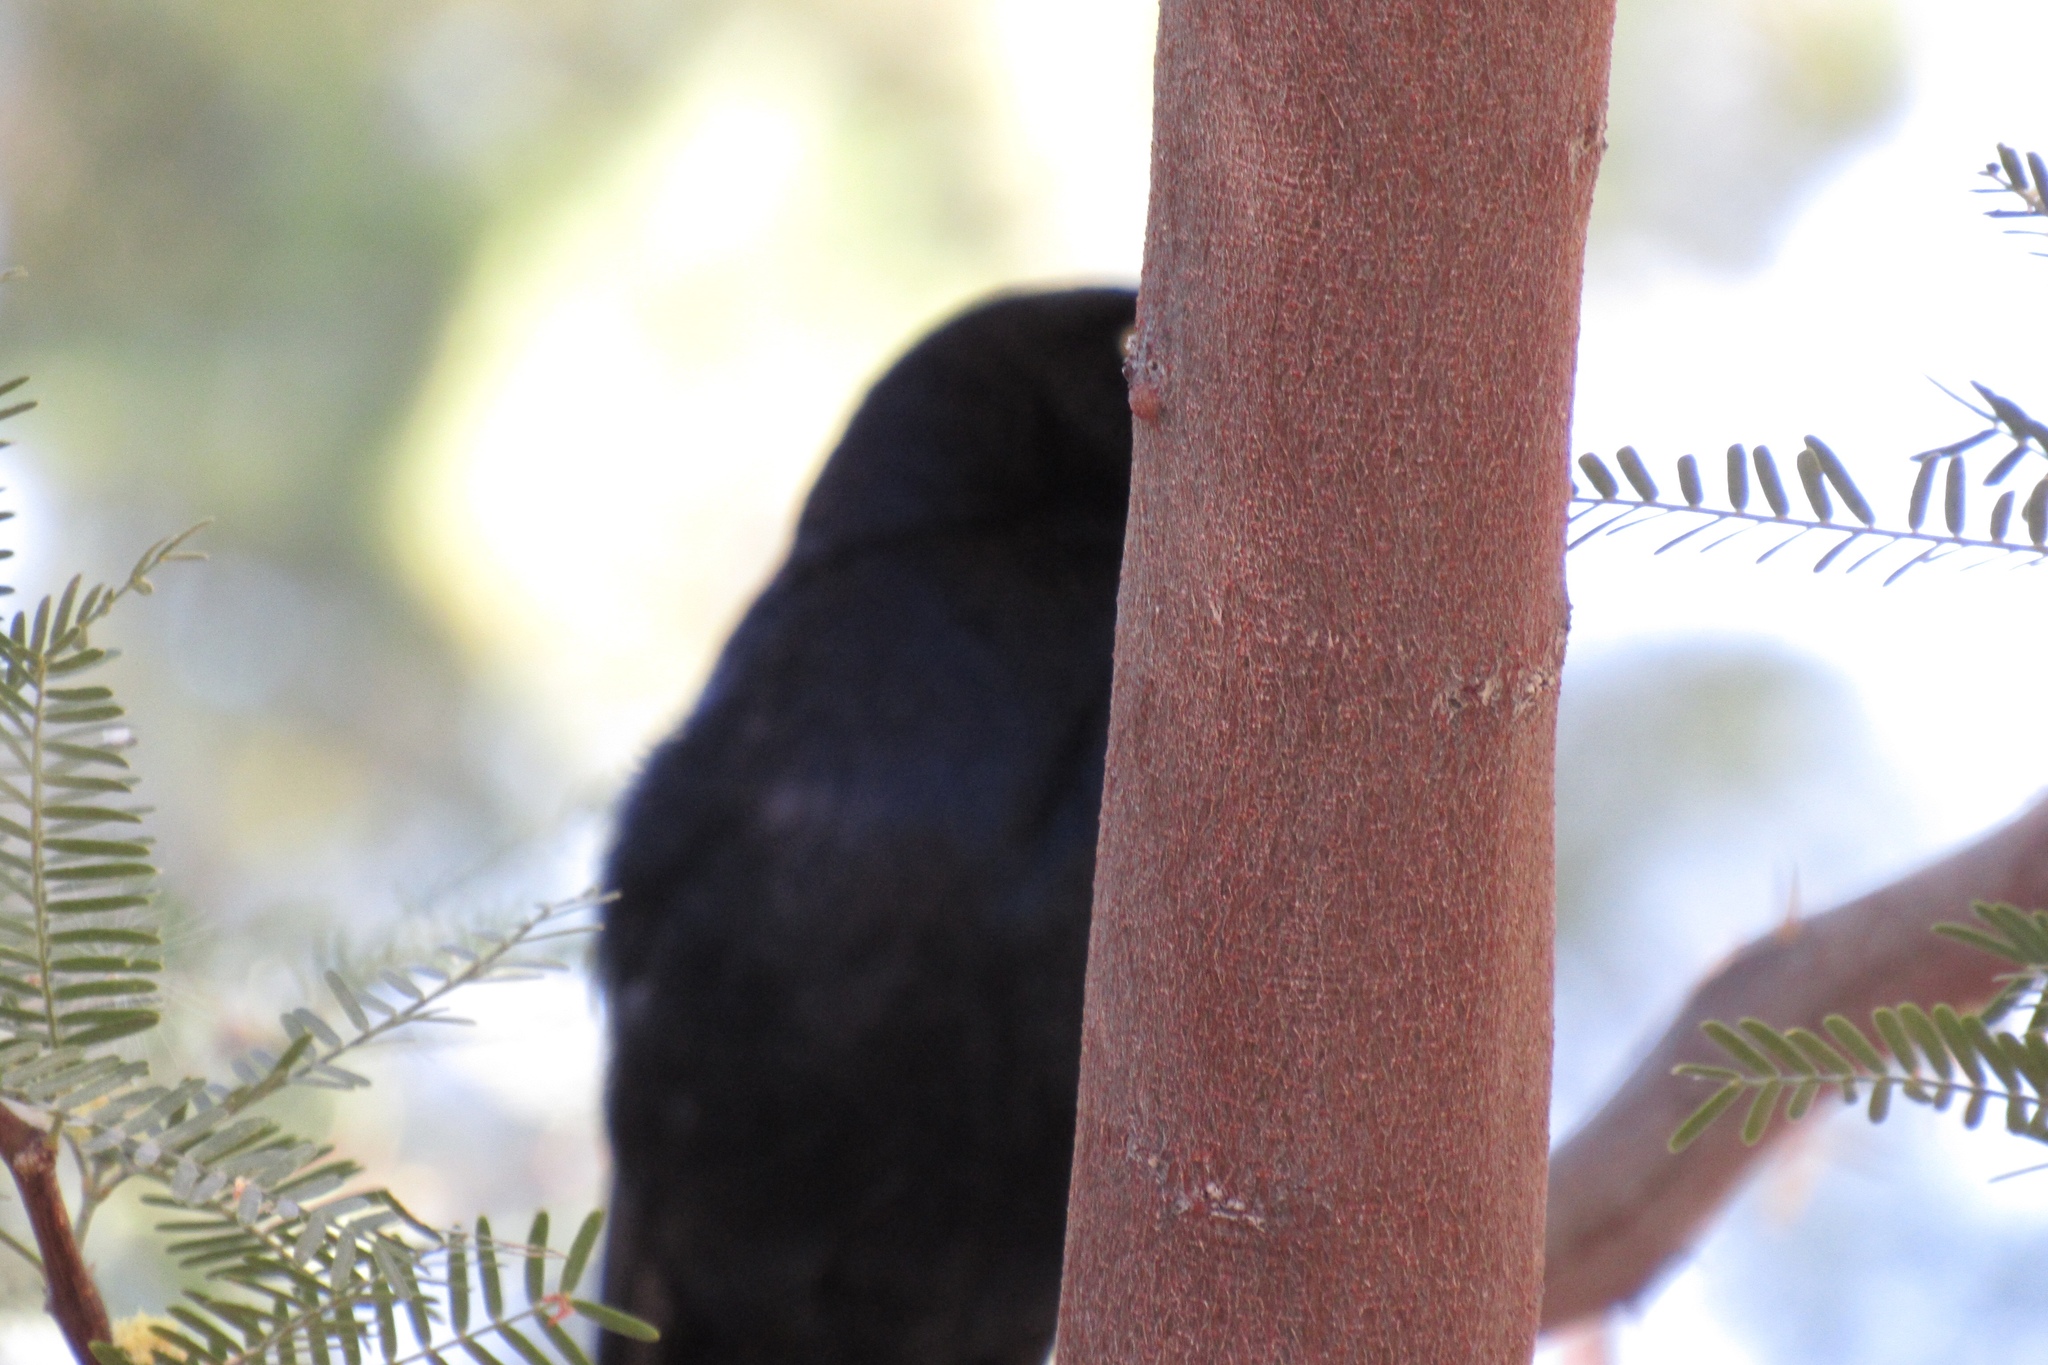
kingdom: Animalia
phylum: Chordata
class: Aves
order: Passeriformes
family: Icteridae
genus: Quiscalus
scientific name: Quiscalus mexicanus
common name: Great-tailed grackle
